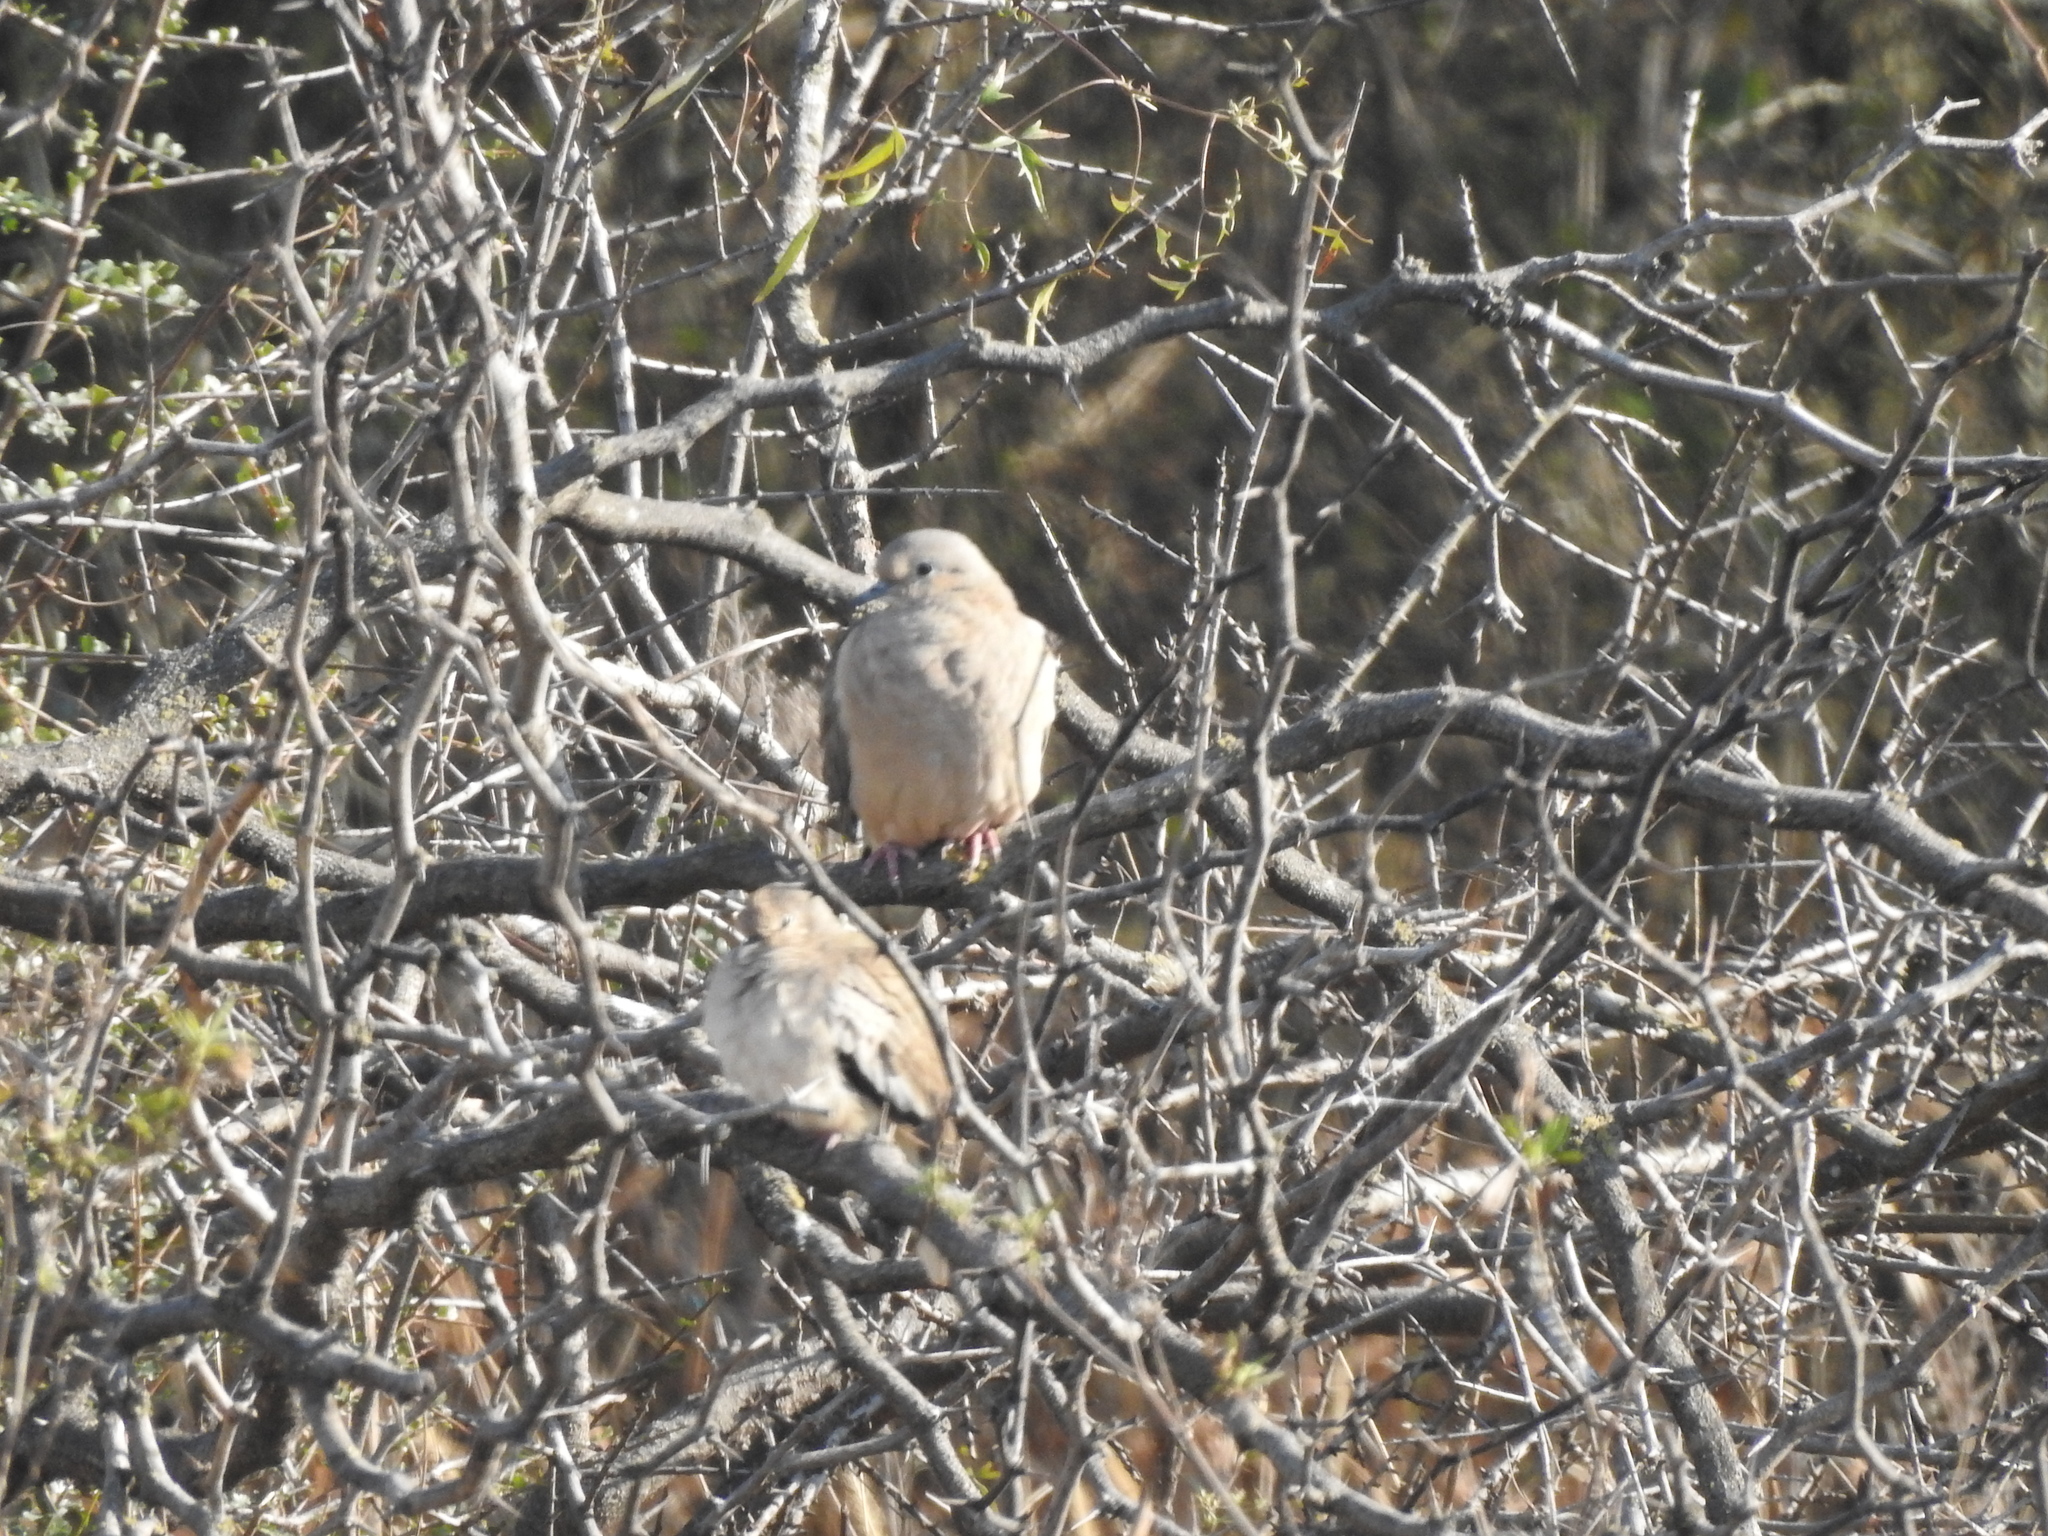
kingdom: Animalia
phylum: Chordata
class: Aves
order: Columbiformes
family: Columbidae
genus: Columbina
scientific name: Columbina picui
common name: Picui ground dove
